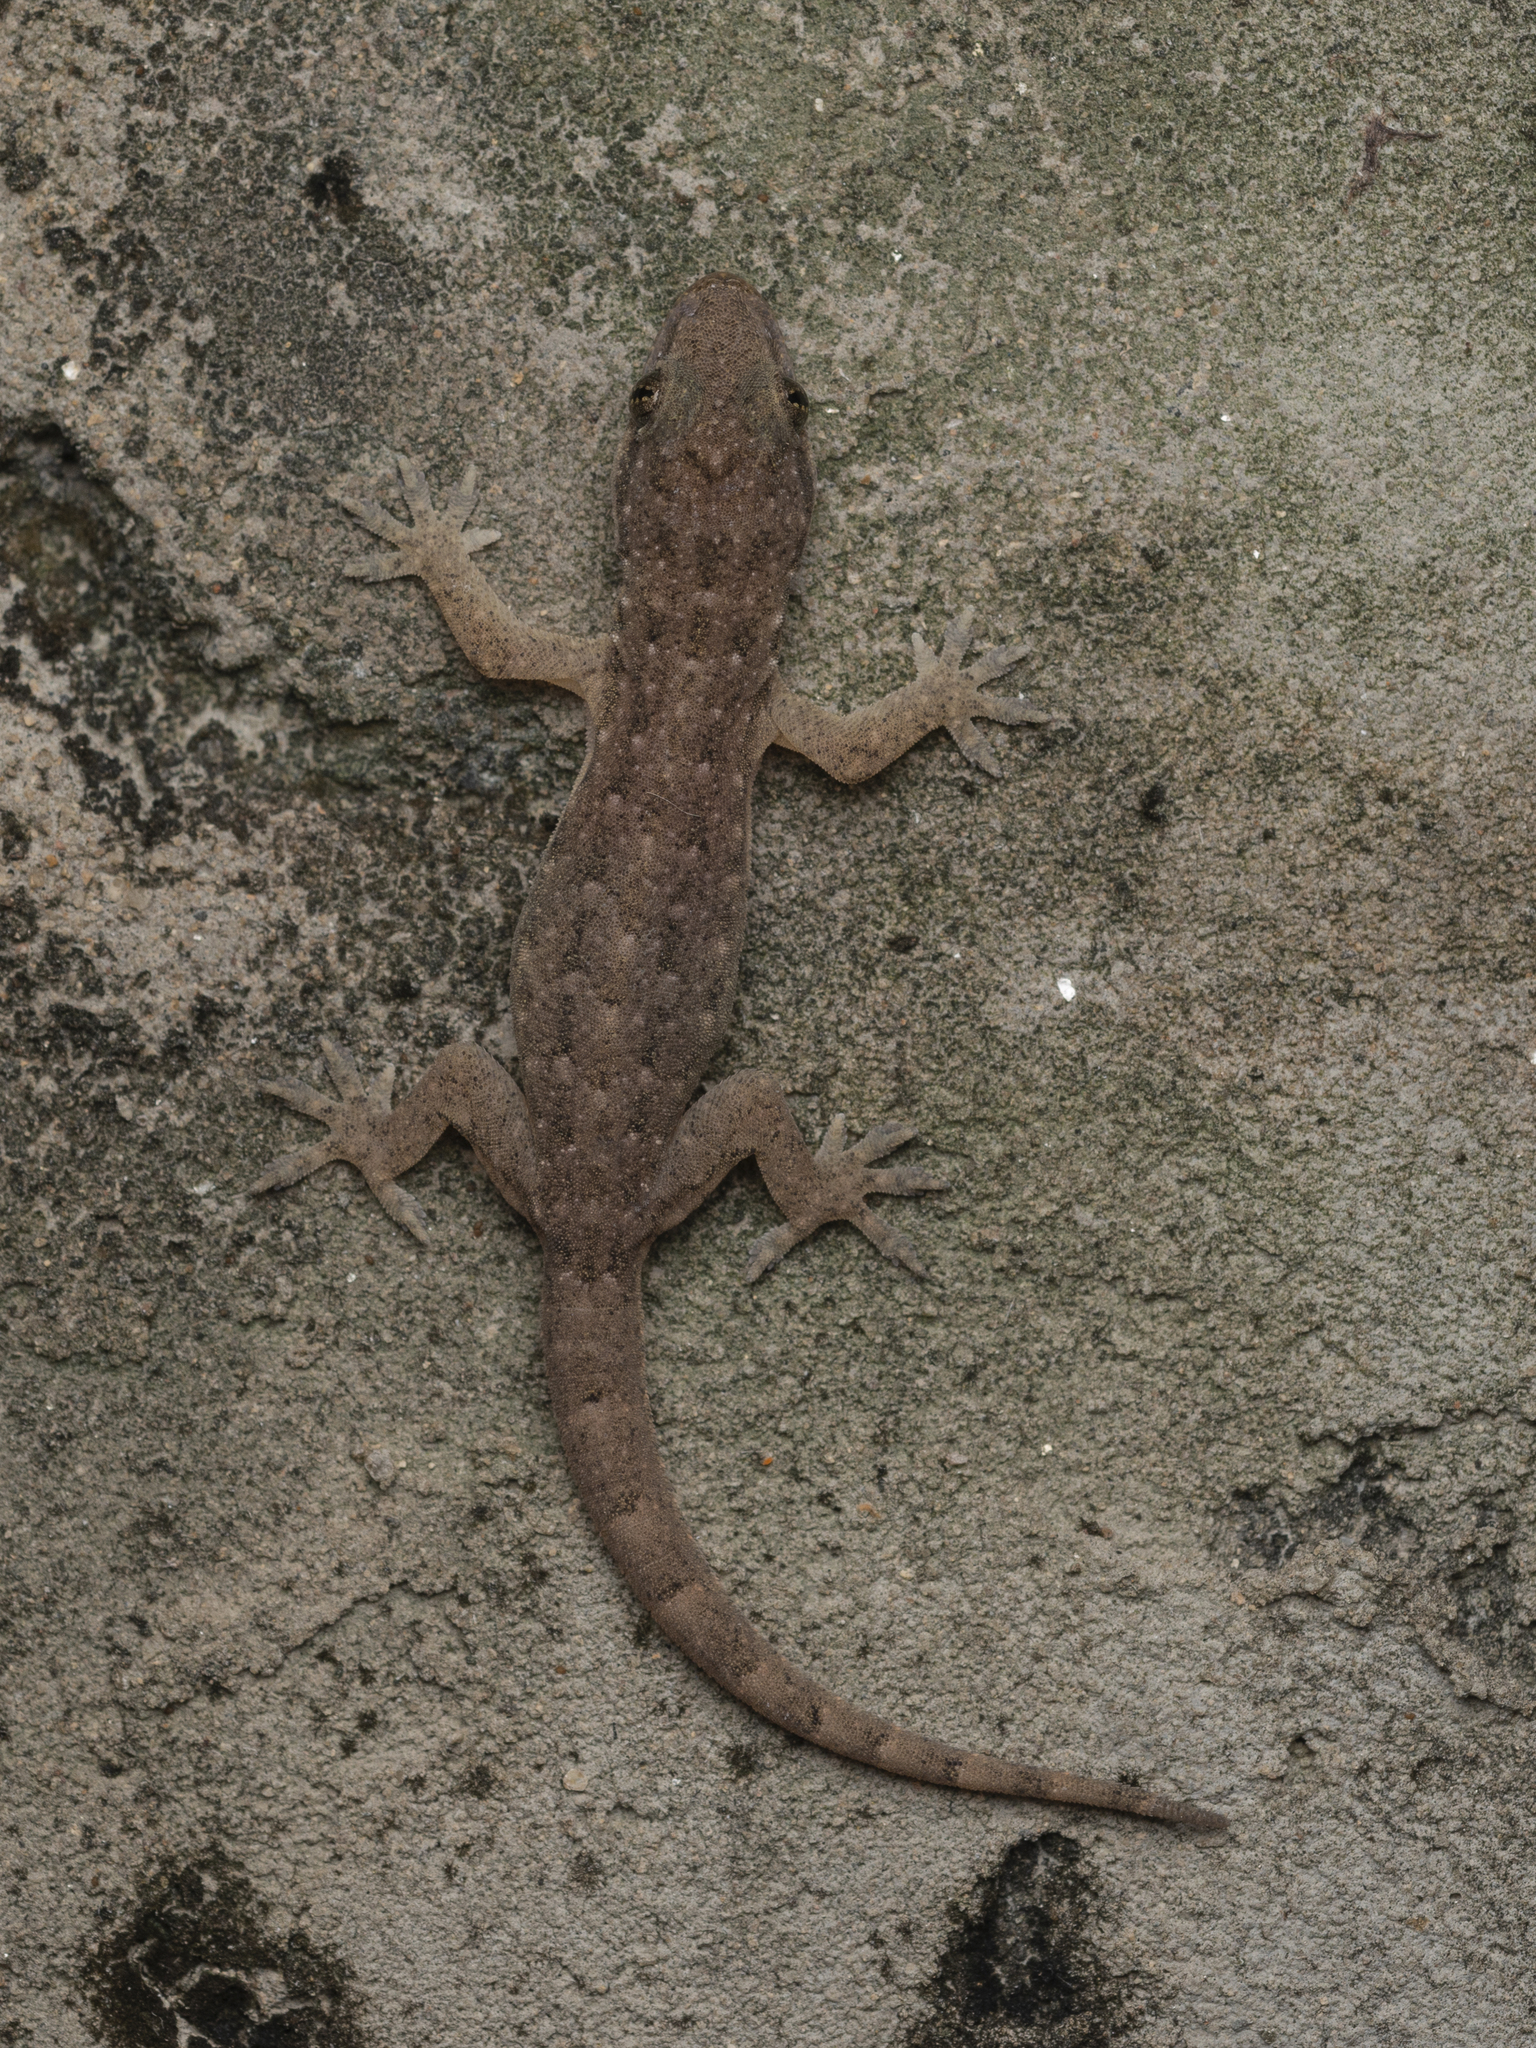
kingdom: Animalia
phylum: Chordata
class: Squamata
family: Gekkonidae
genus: Hemidactylus
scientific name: Hemidactylus bowringii
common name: Oriental leaf-toed gecko
